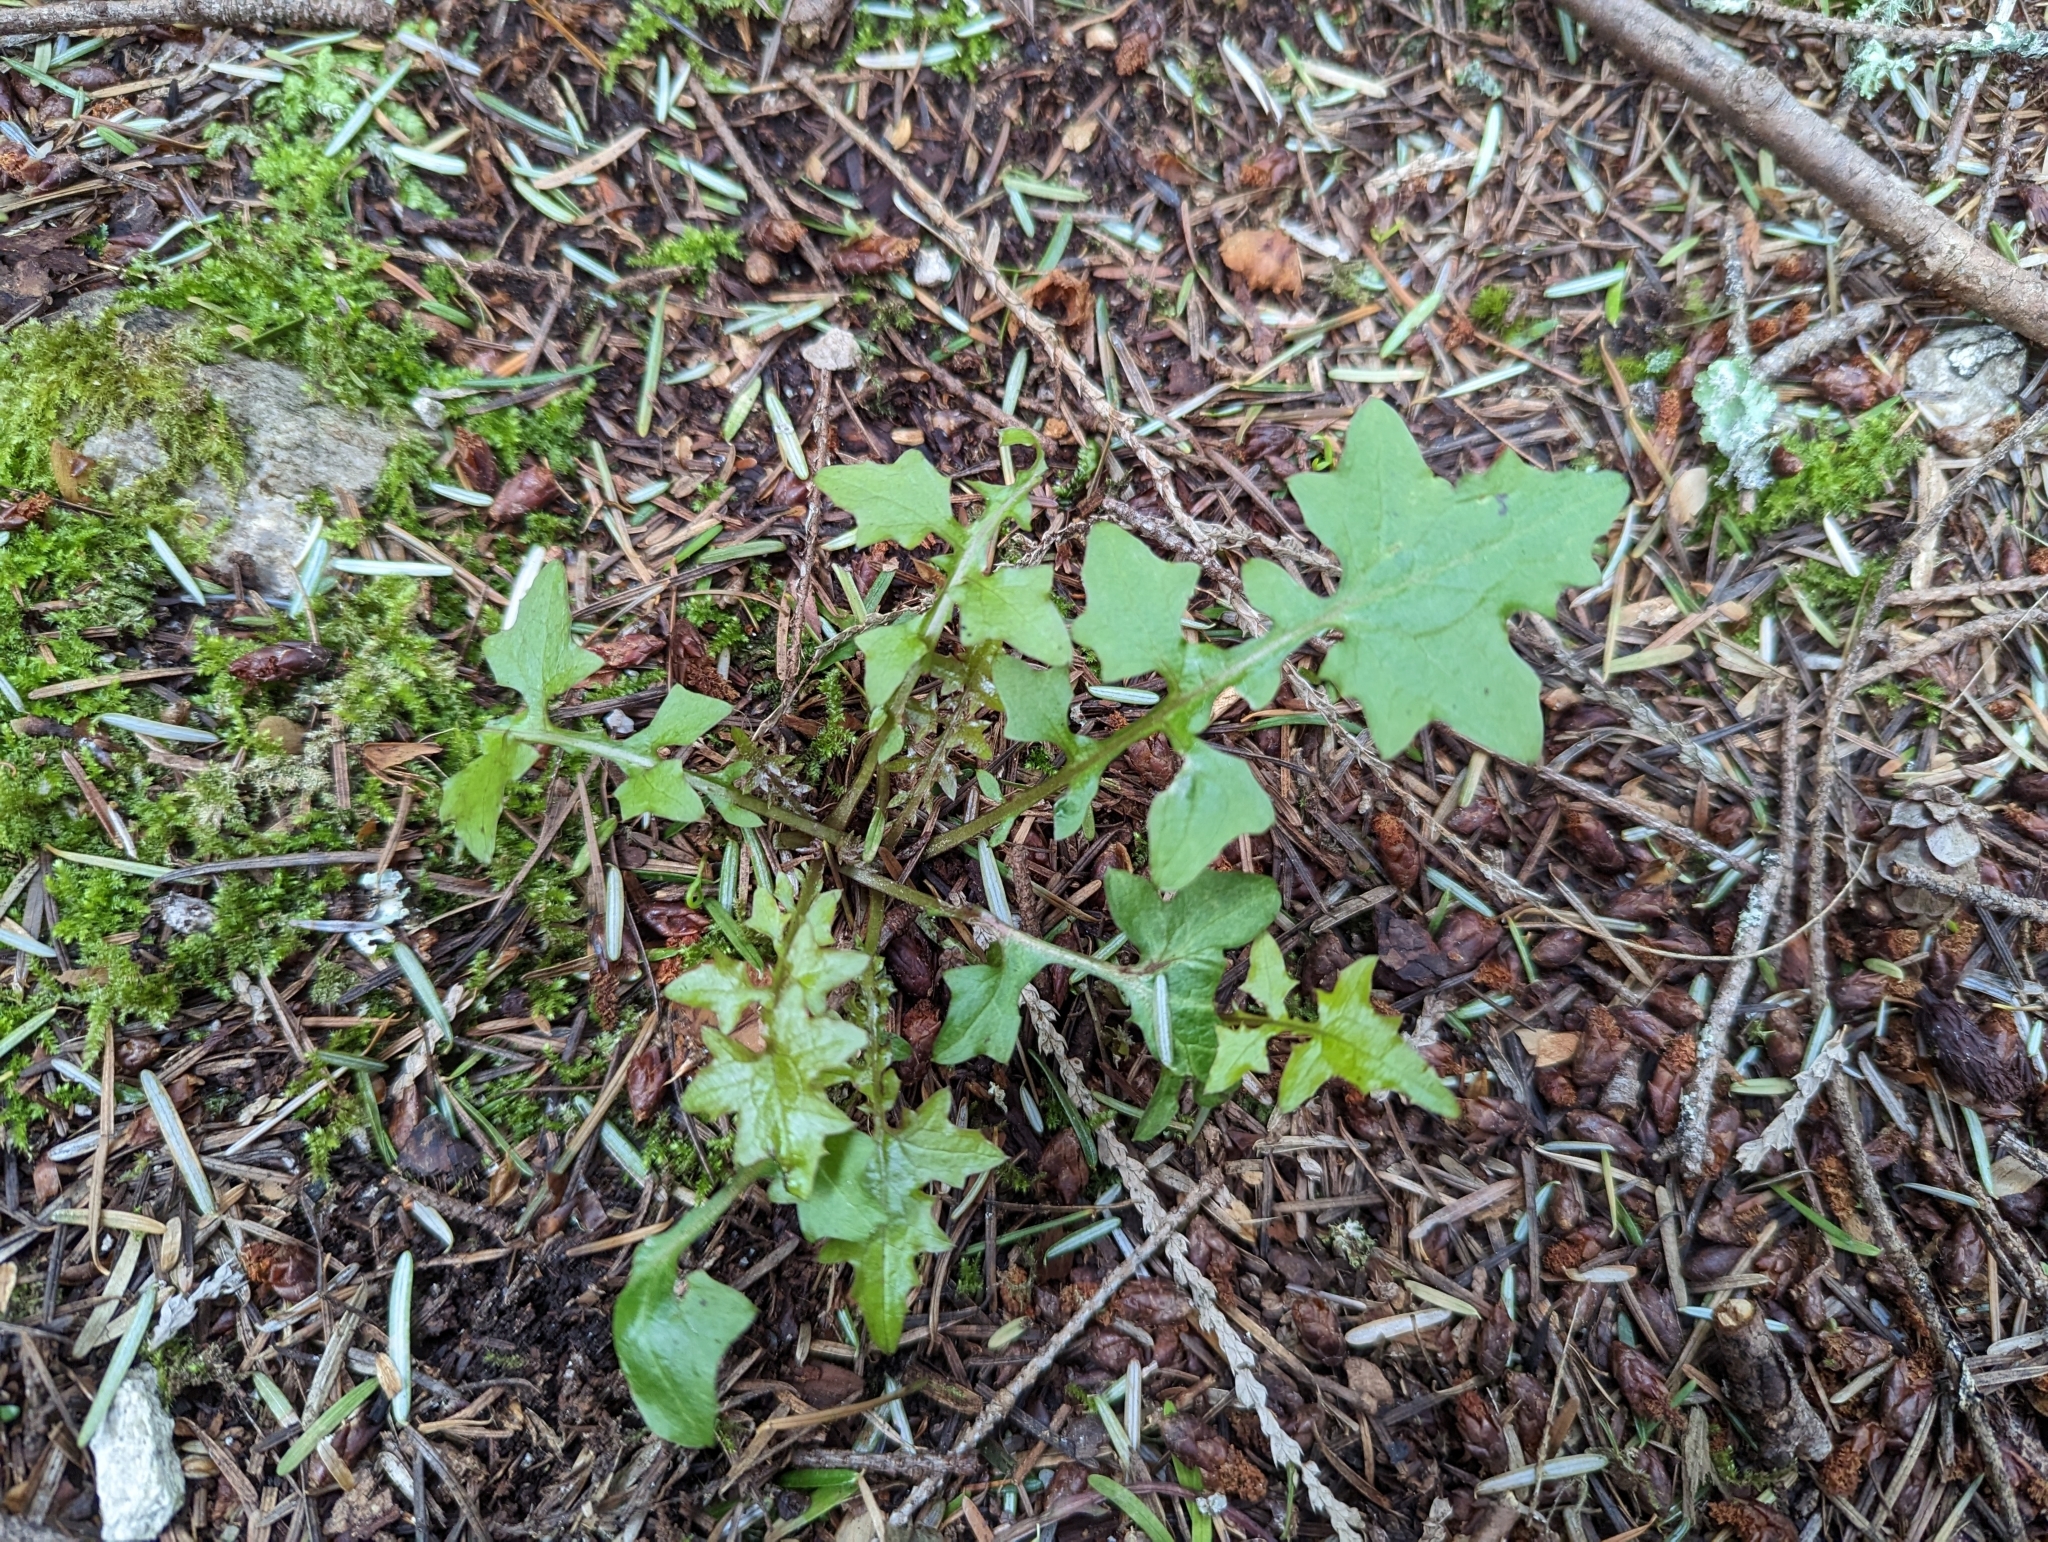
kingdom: Plantae
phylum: Tracheophyta
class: Magnoliopsida
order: Asterales
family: Asteraceae
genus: Mycelis
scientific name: Mycelis muralis
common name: Wall lettuce
